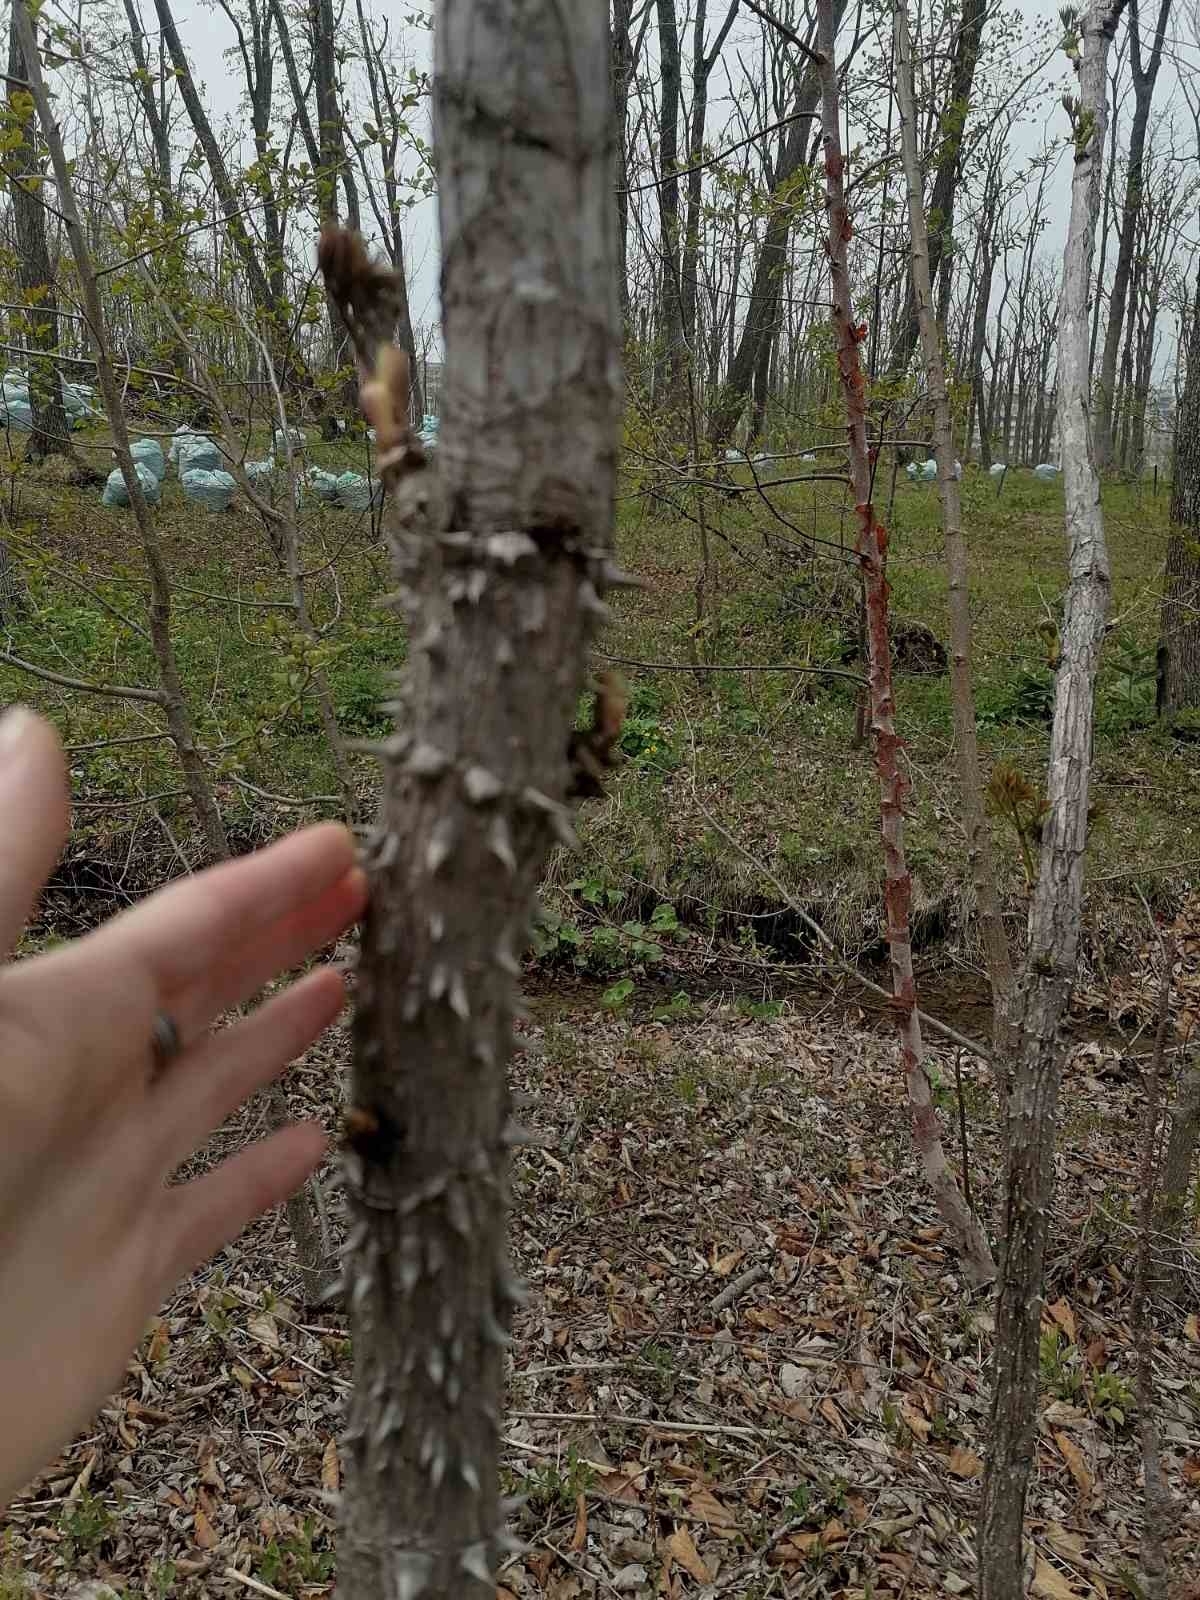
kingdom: Plantae
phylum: Tracheophyta
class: Magnoliopsida
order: Apiales
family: Araliaceae
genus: Aralia
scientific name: Aralia elata
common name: Japanese angelica-tree
